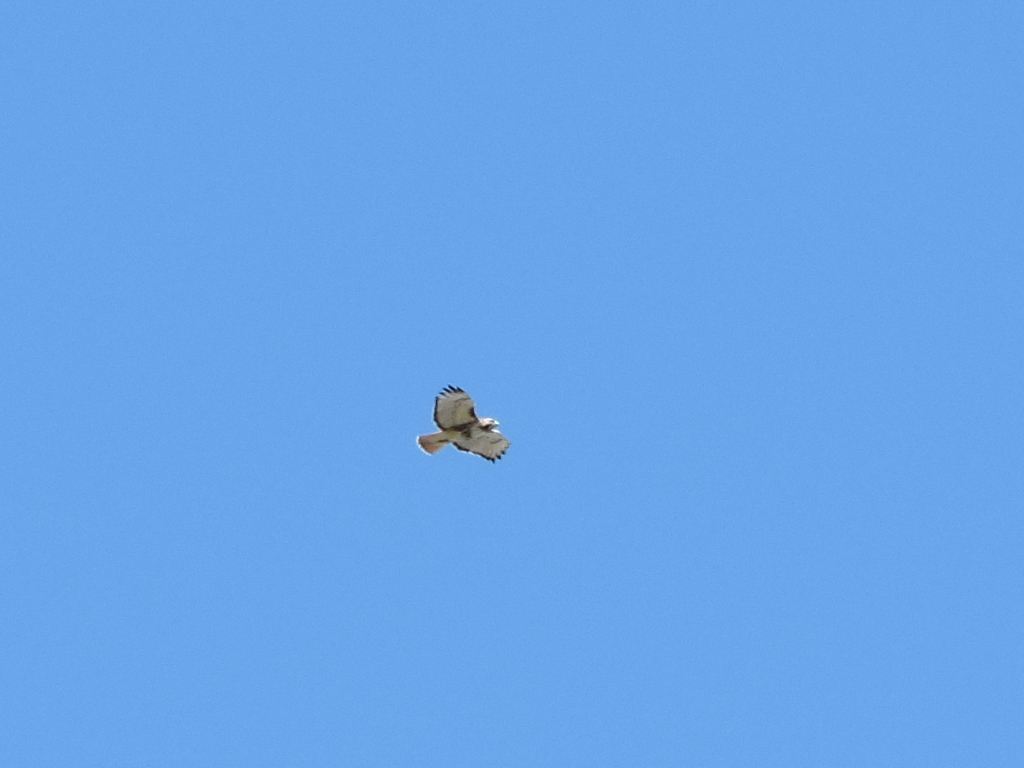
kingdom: Animalia
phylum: Chordata
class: Aves
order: Accipitriformes
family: Accipitridae
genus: Buteo
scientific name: Buteo jamaicensis
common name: Red-tailed hawk
